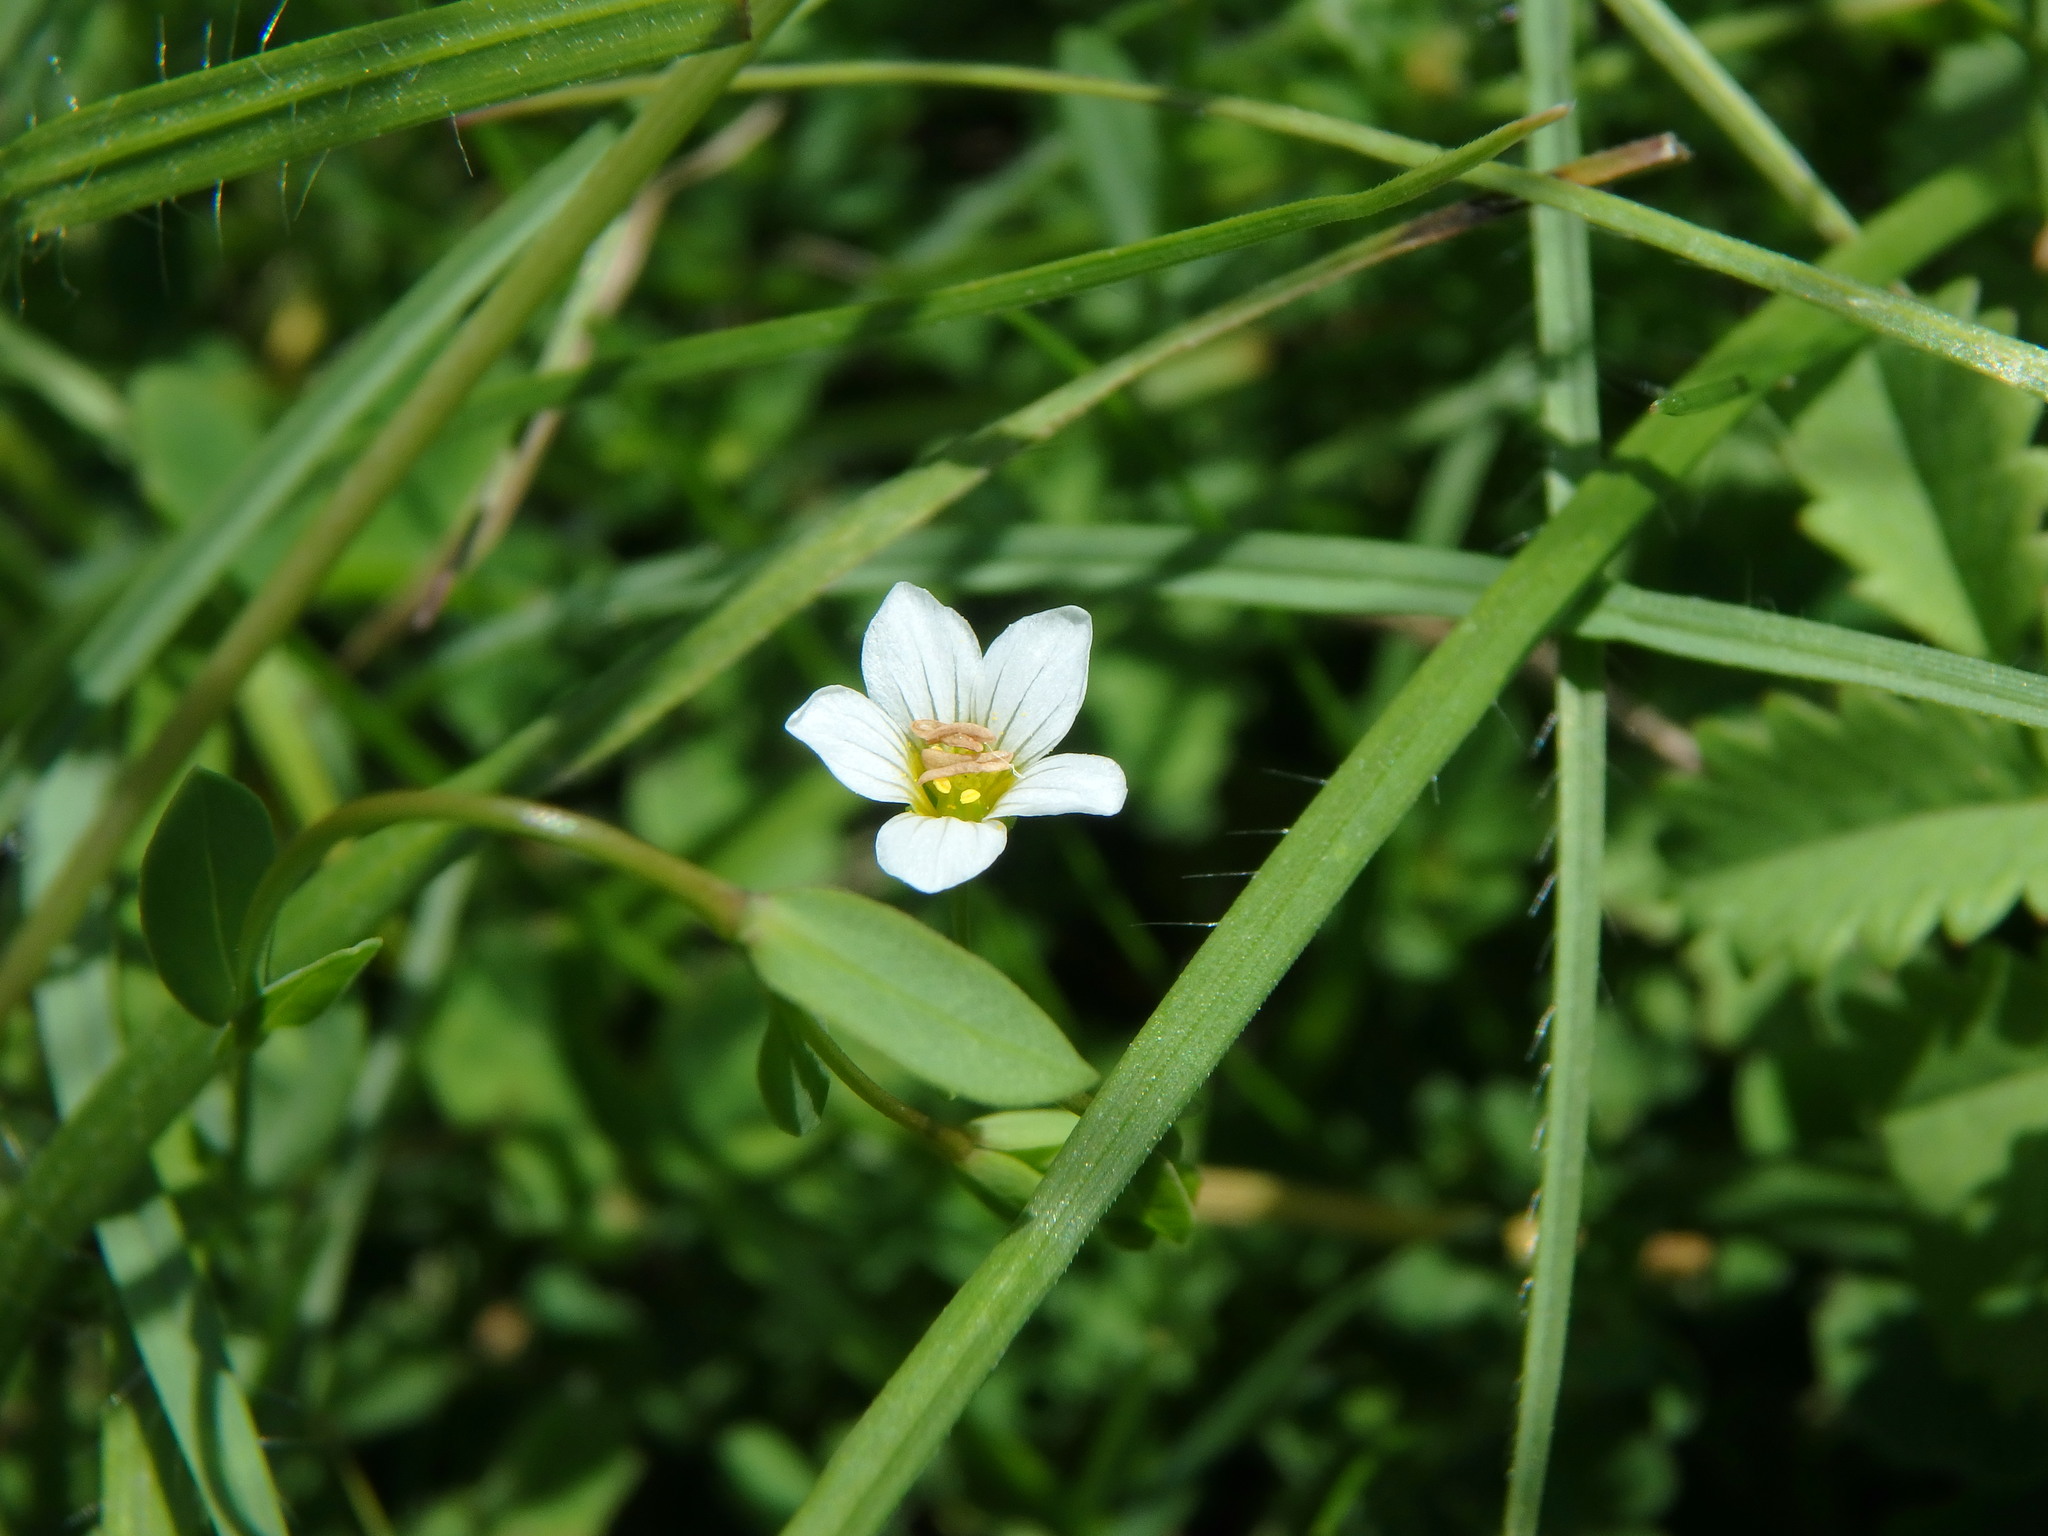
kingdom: Plantae
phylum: Tracheophyta
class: Magnoliopsida
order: Malpighiales
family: Linaceae
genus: Linum
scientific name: Linum catharticum
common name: Fairy flax
